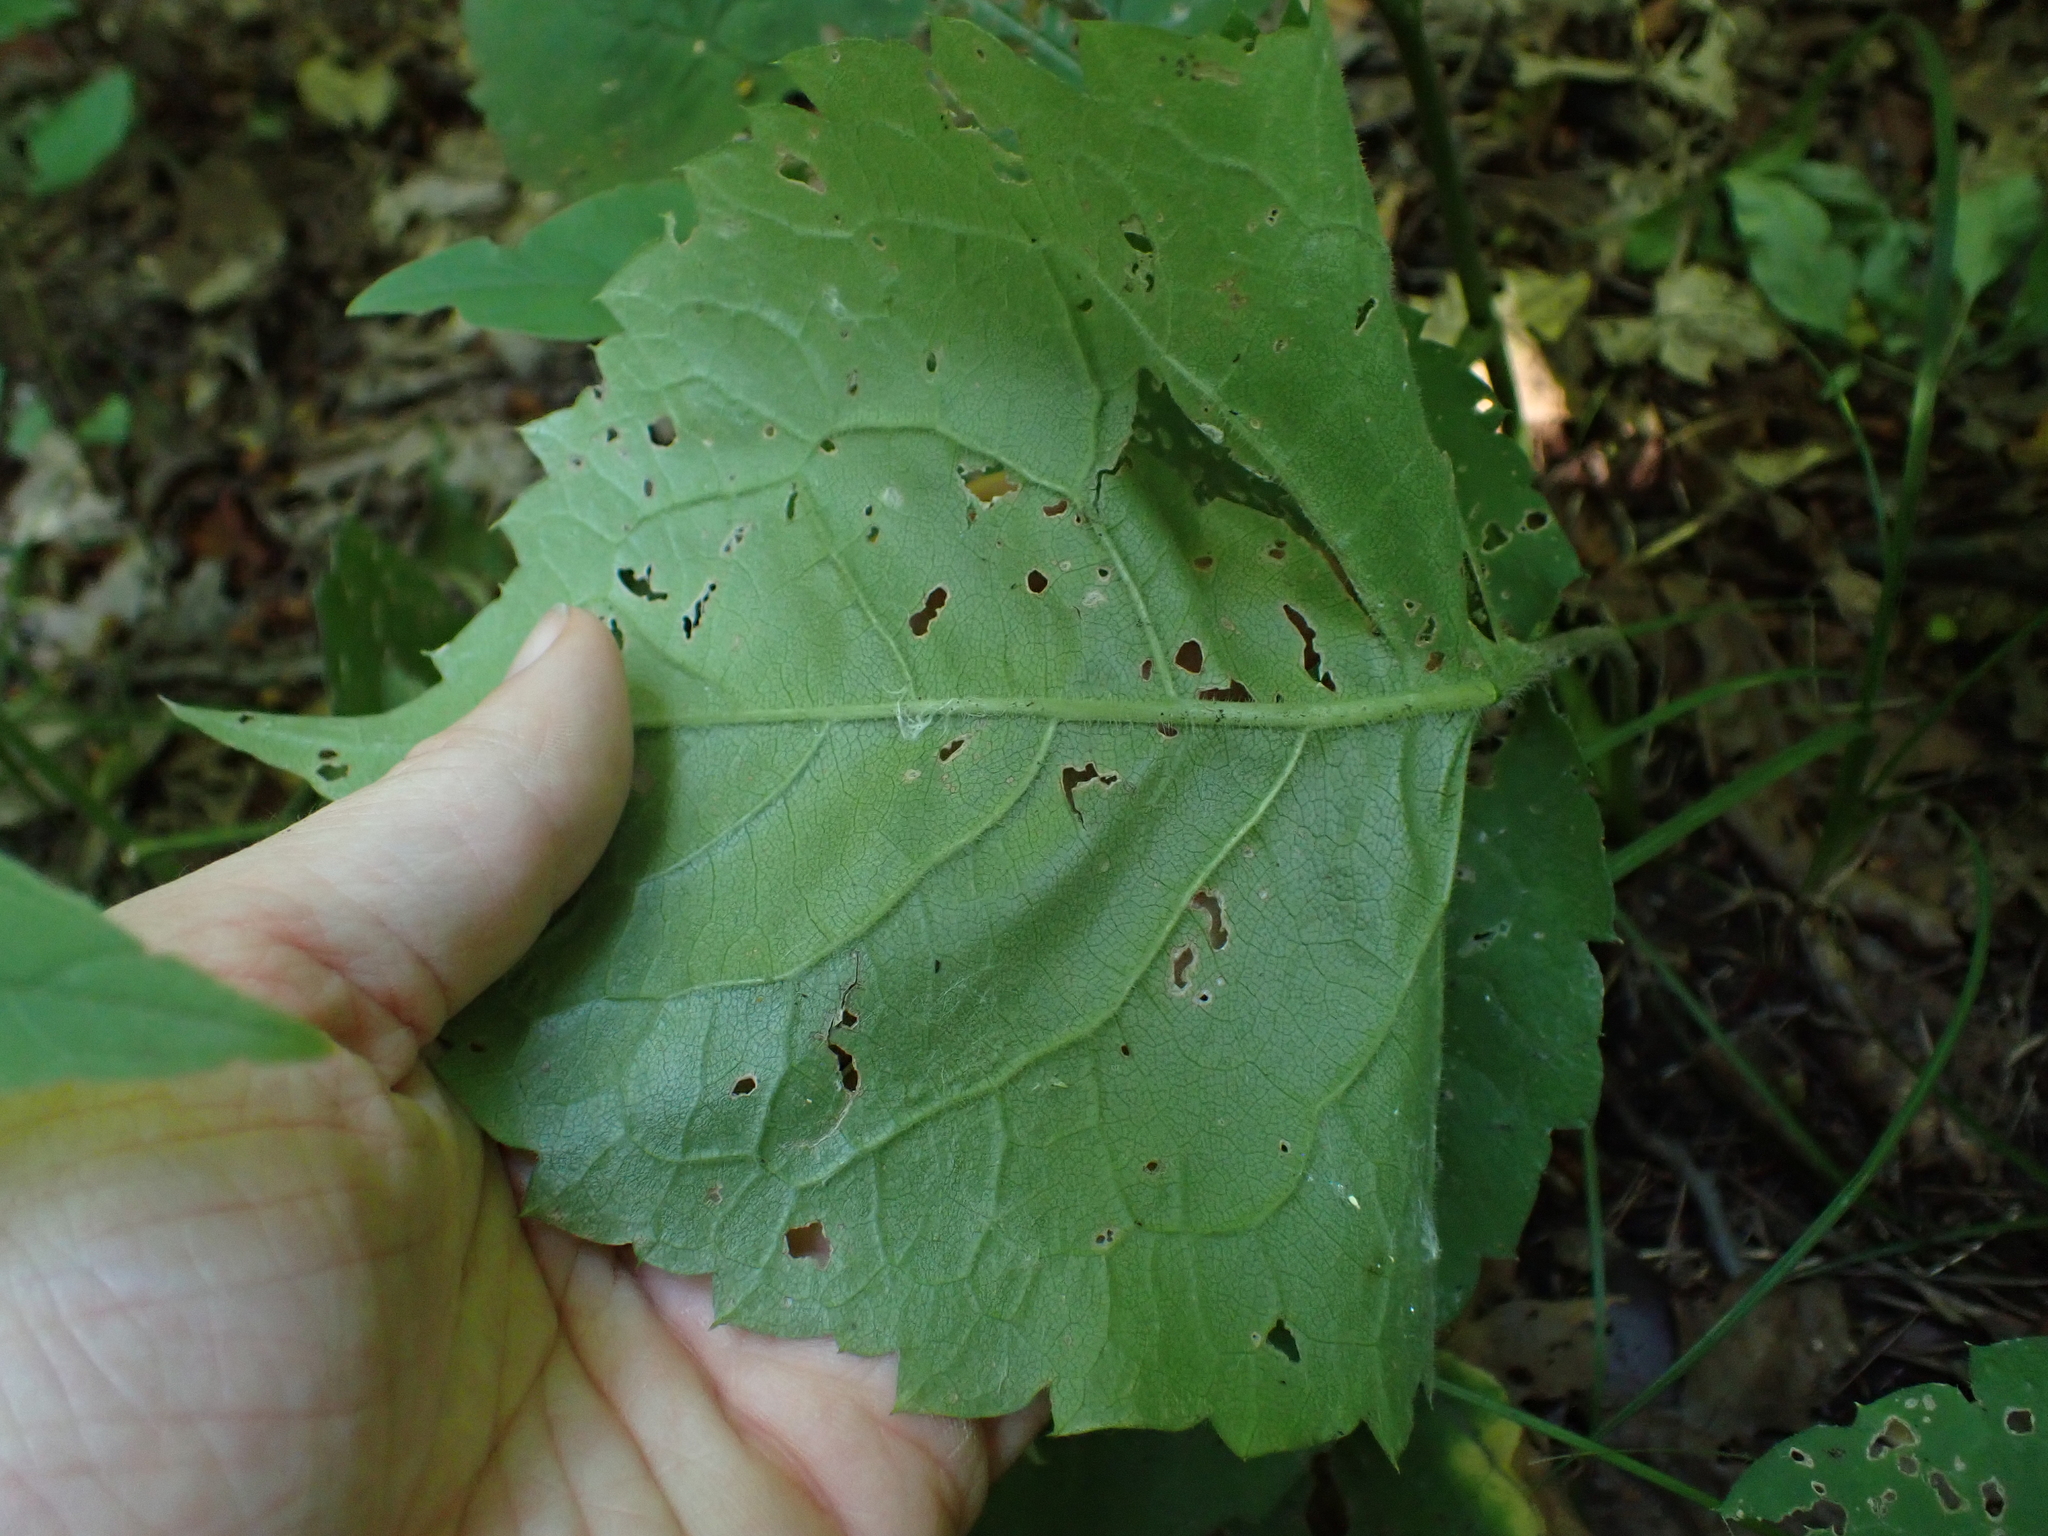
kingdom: Plantae
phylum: Tracheophyta
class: Magnoliopsida
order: Asterales
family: Asteraceae
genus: Eurybia
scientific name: Eurybia macrophylla
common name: Big-leaved aster
